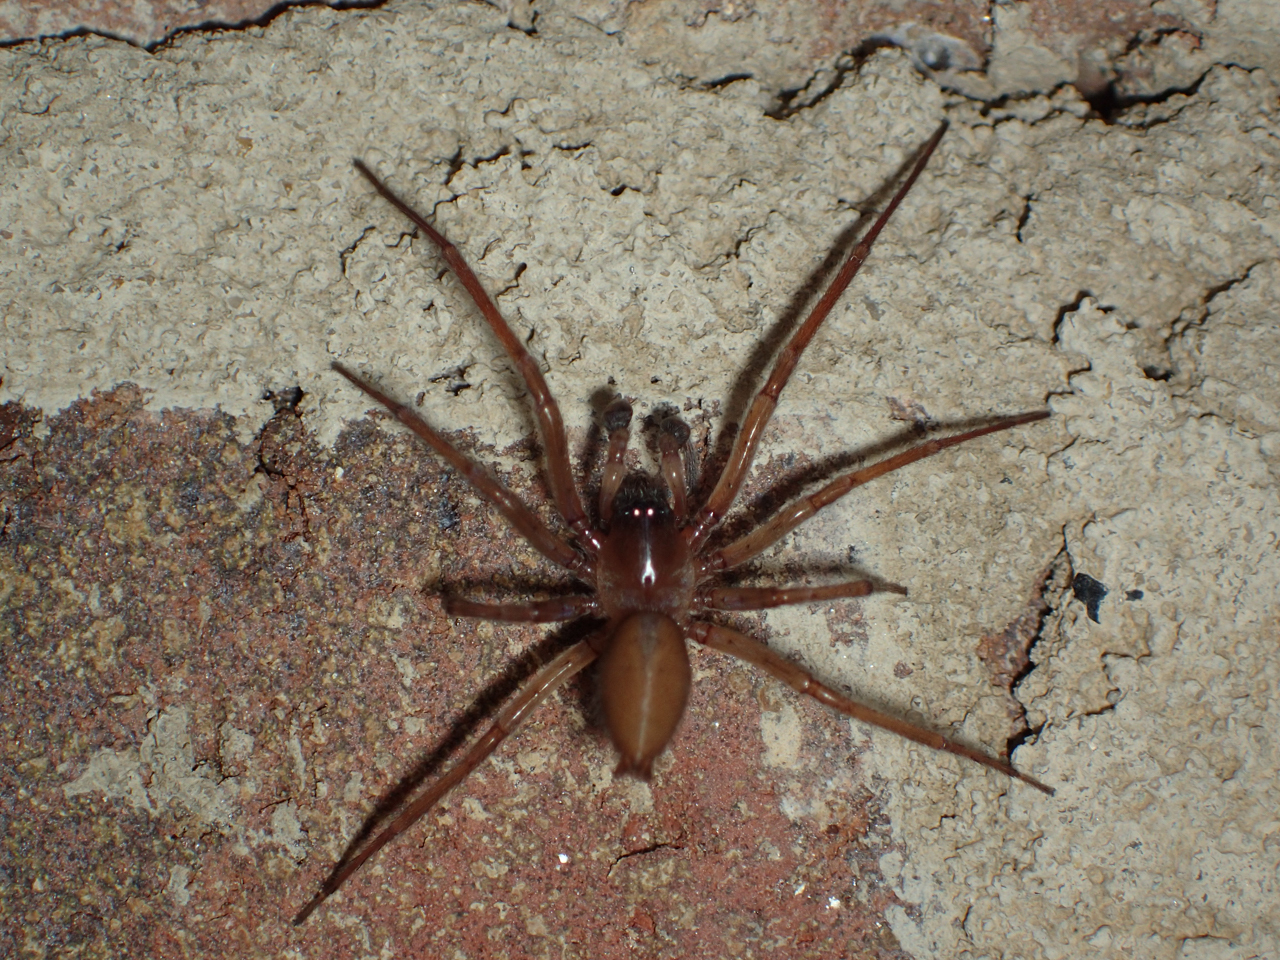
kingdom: Animalia
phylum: Arthropoda
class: Arachnida
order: Araneae
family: Cheiracanthiidae
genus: Strotarchus
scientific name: Strotarchus piscatorius
